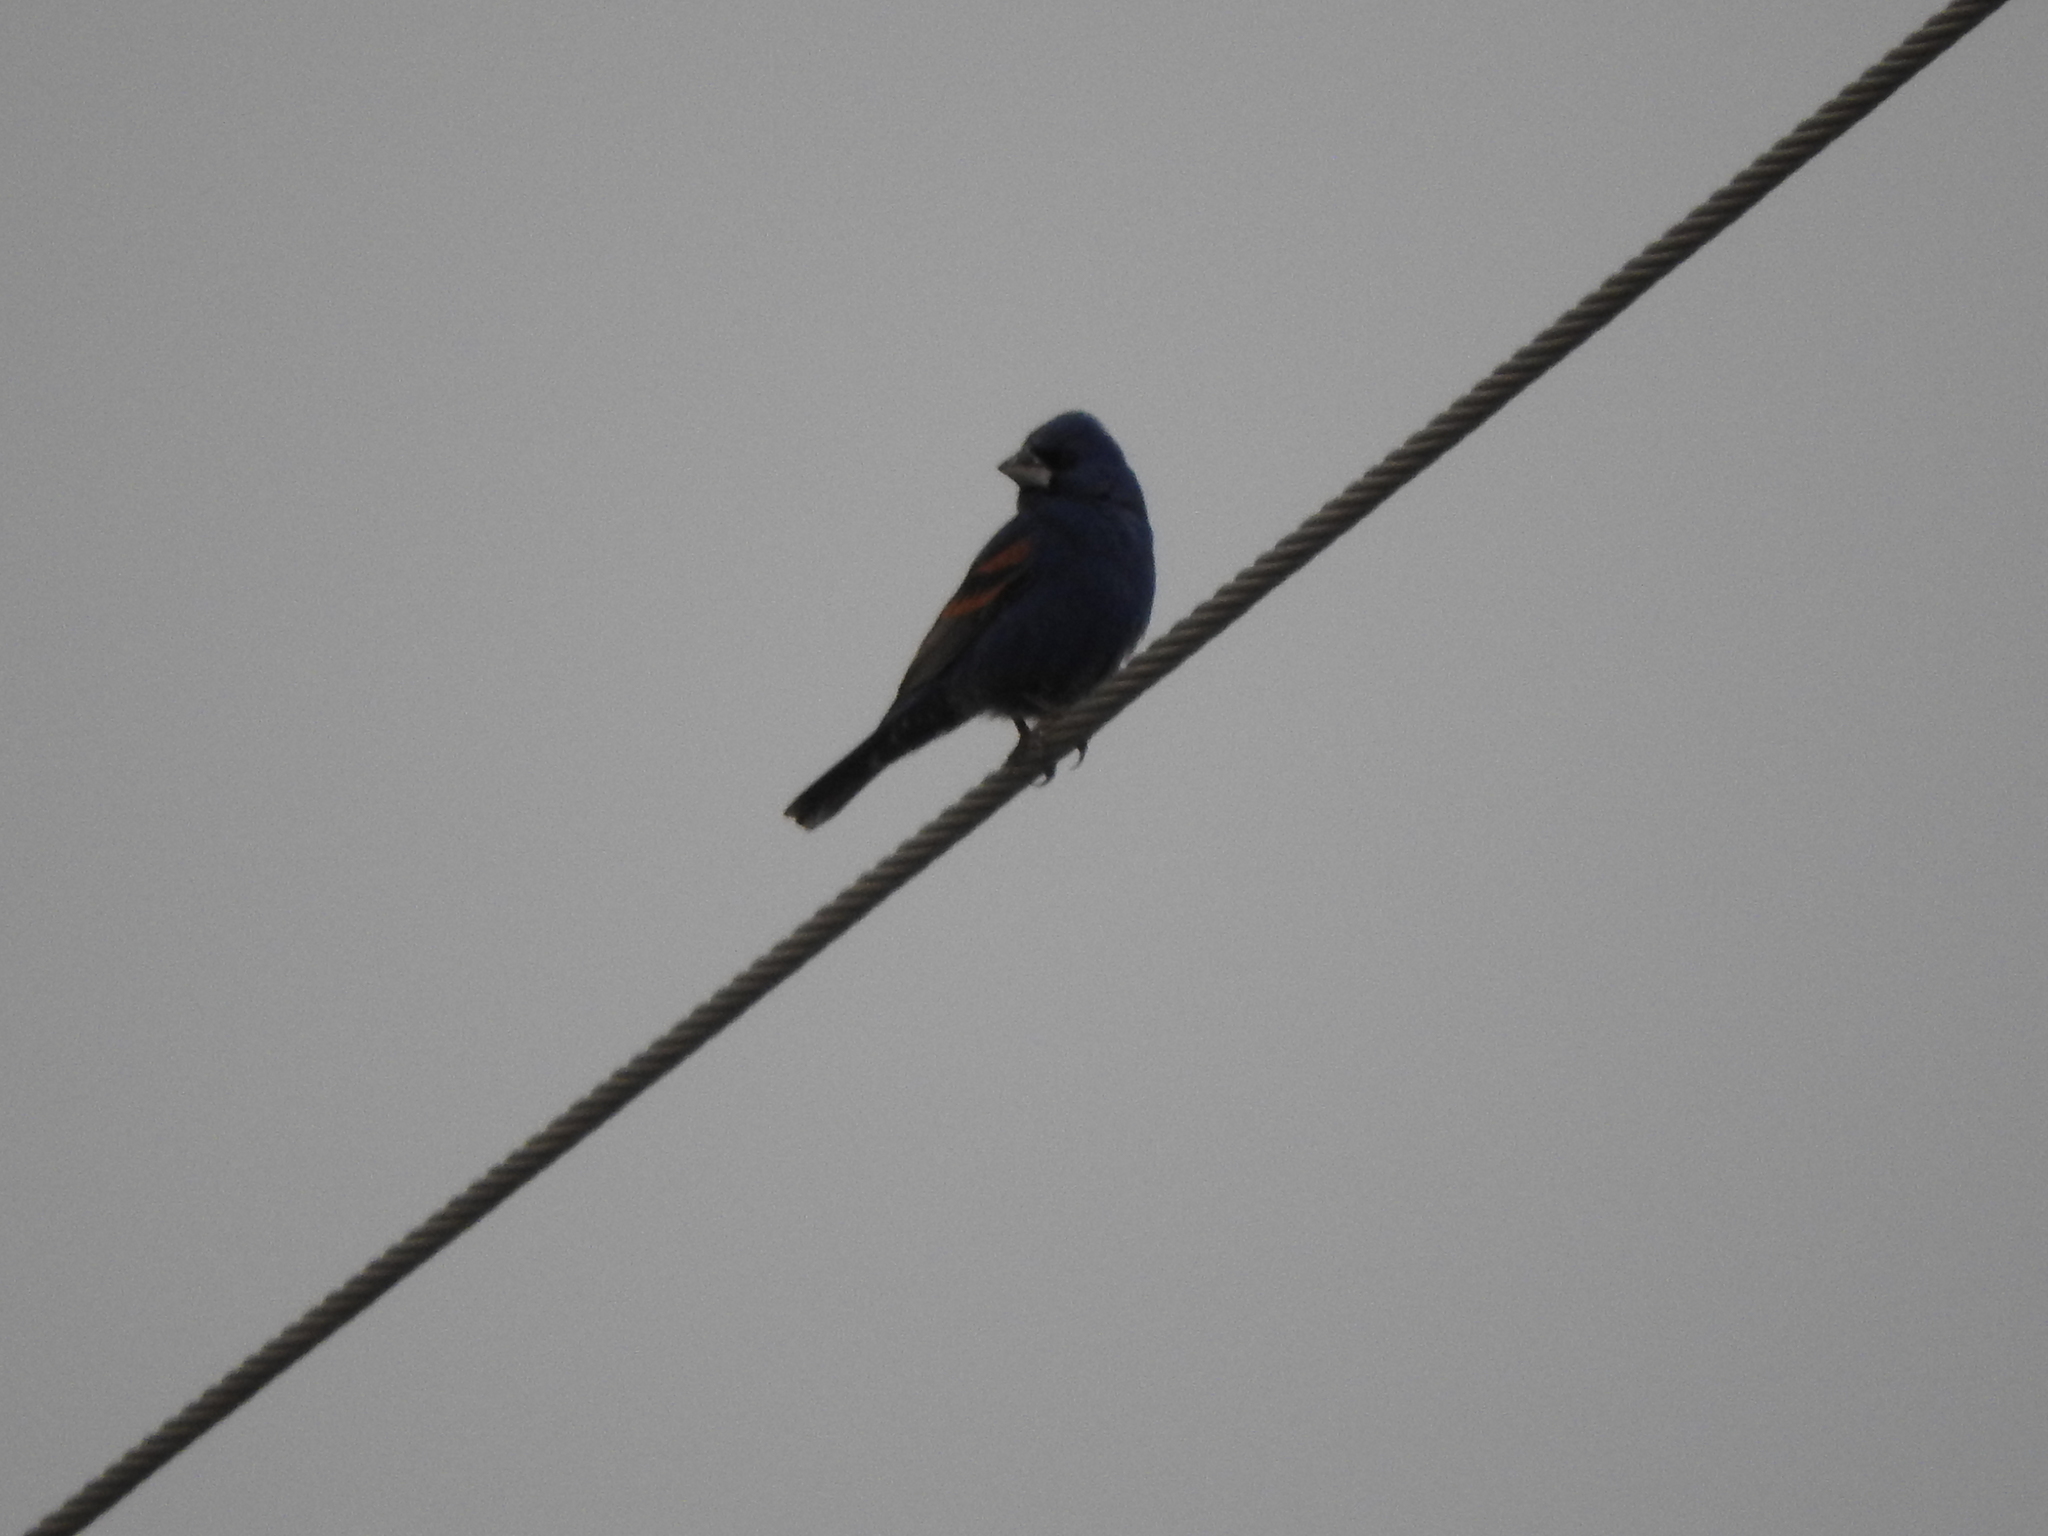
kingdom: Animalia
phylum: Chordata
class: Aves
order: Passeriformes
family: Cardinalidae
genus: Passerina
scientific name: Passerina caerulea
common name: Blue grosbeak
